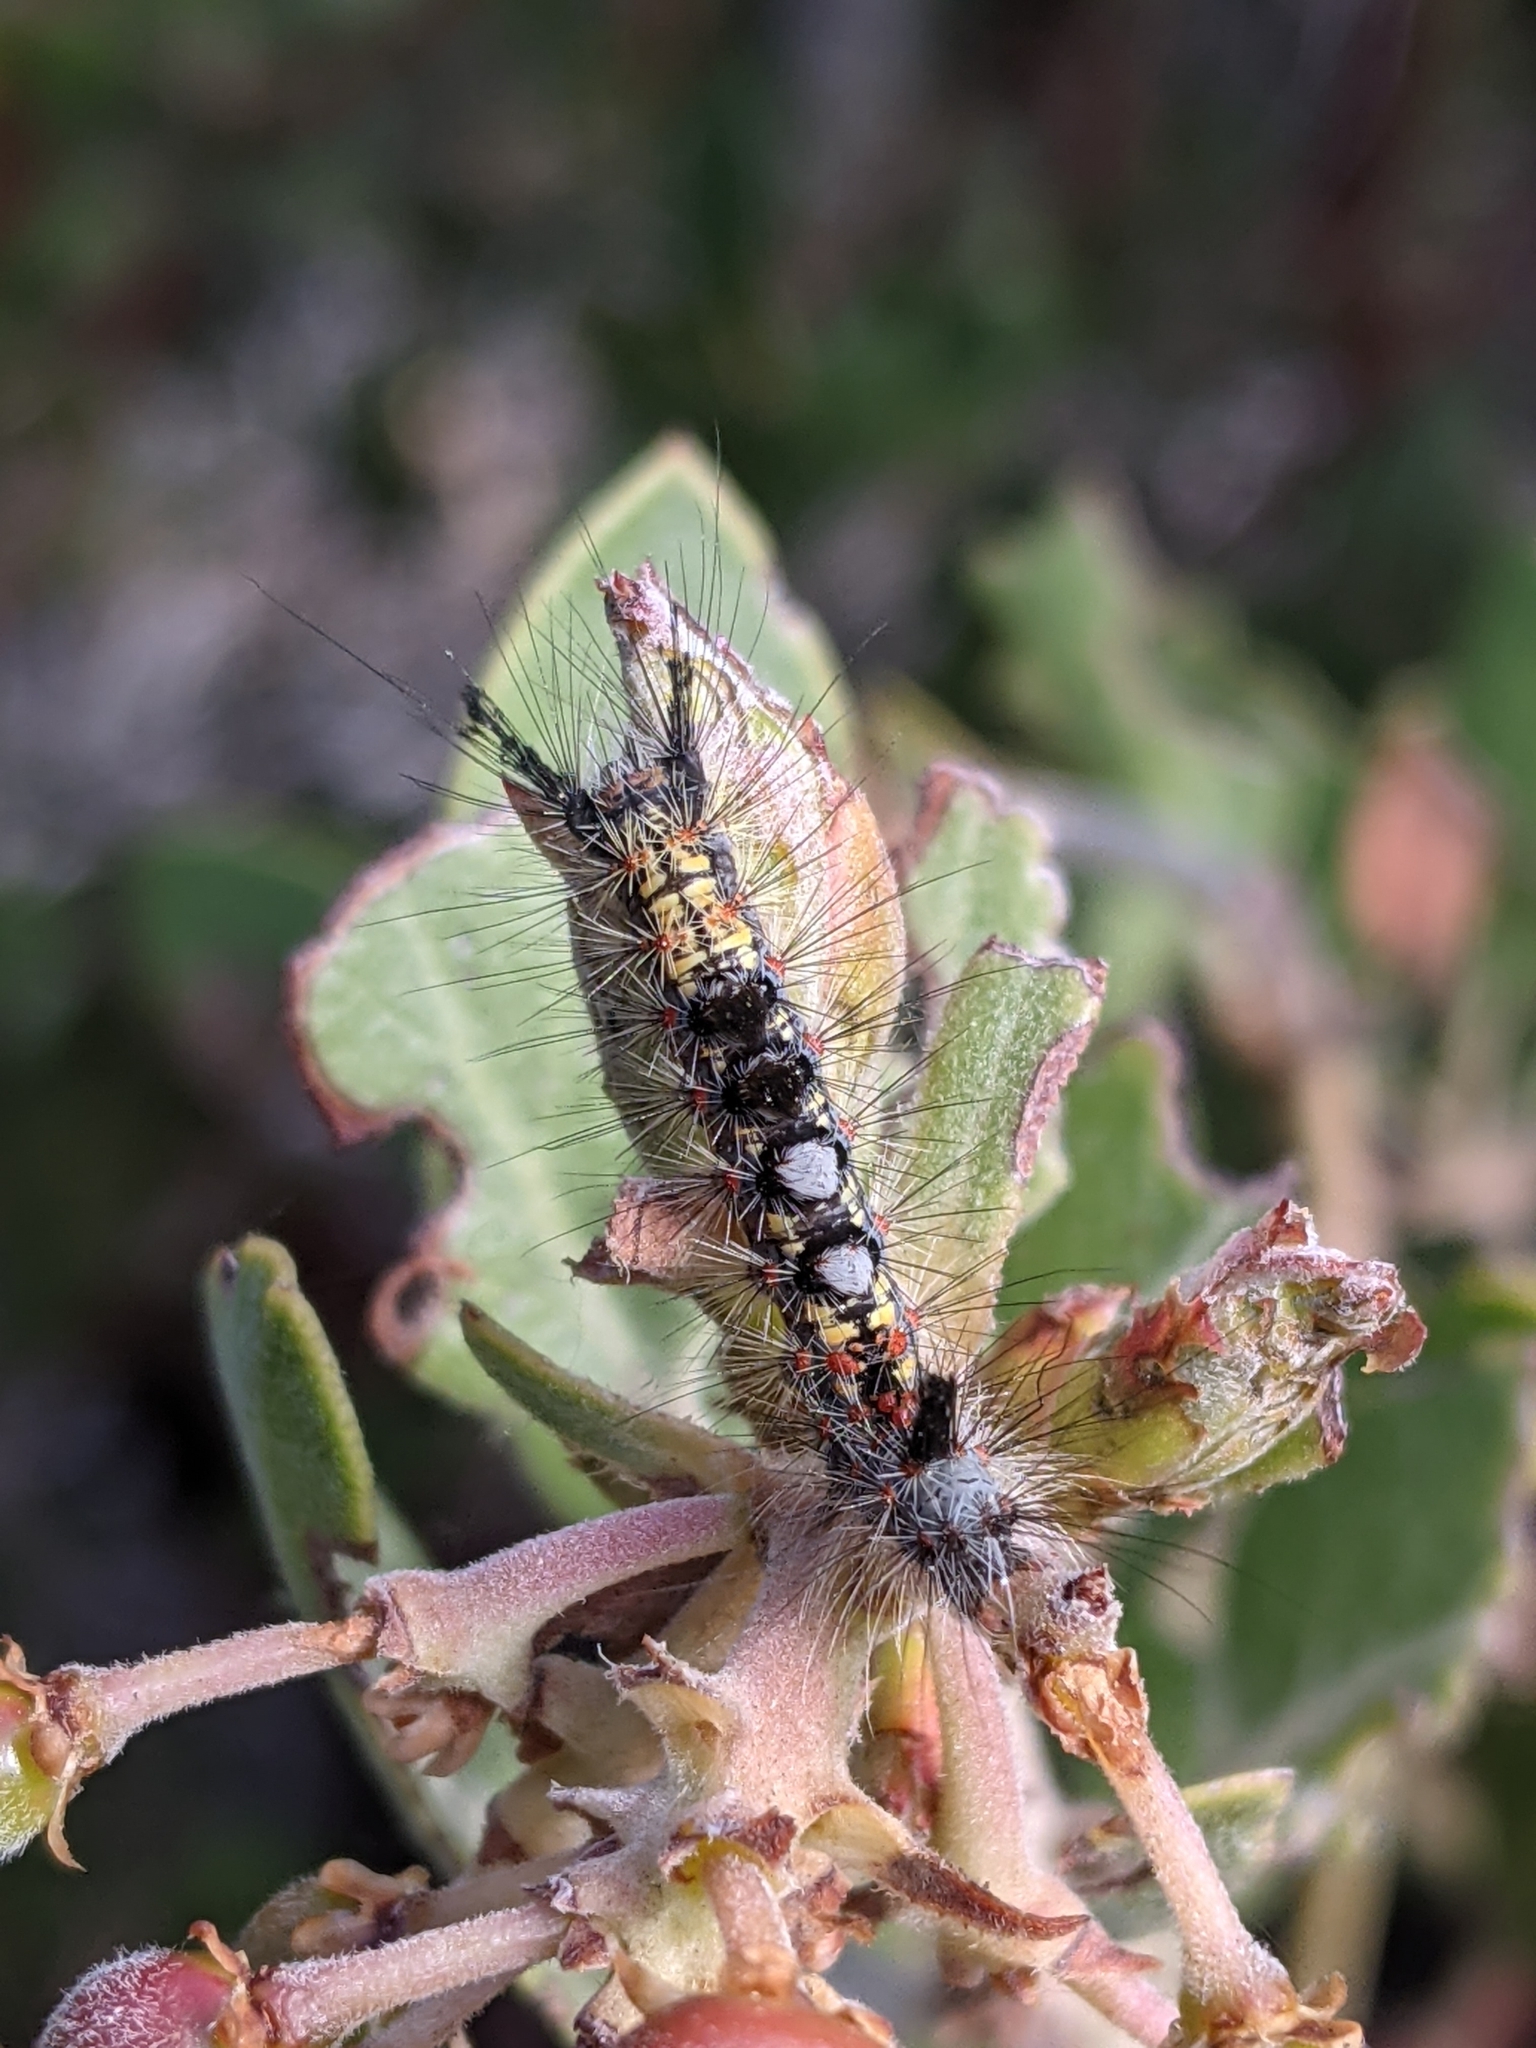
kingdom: Animalia
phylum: Arthropoda
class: Insecta
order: Lepidoptera
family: Erebidae
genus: Orgyia
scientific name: Orgyia vetusta
